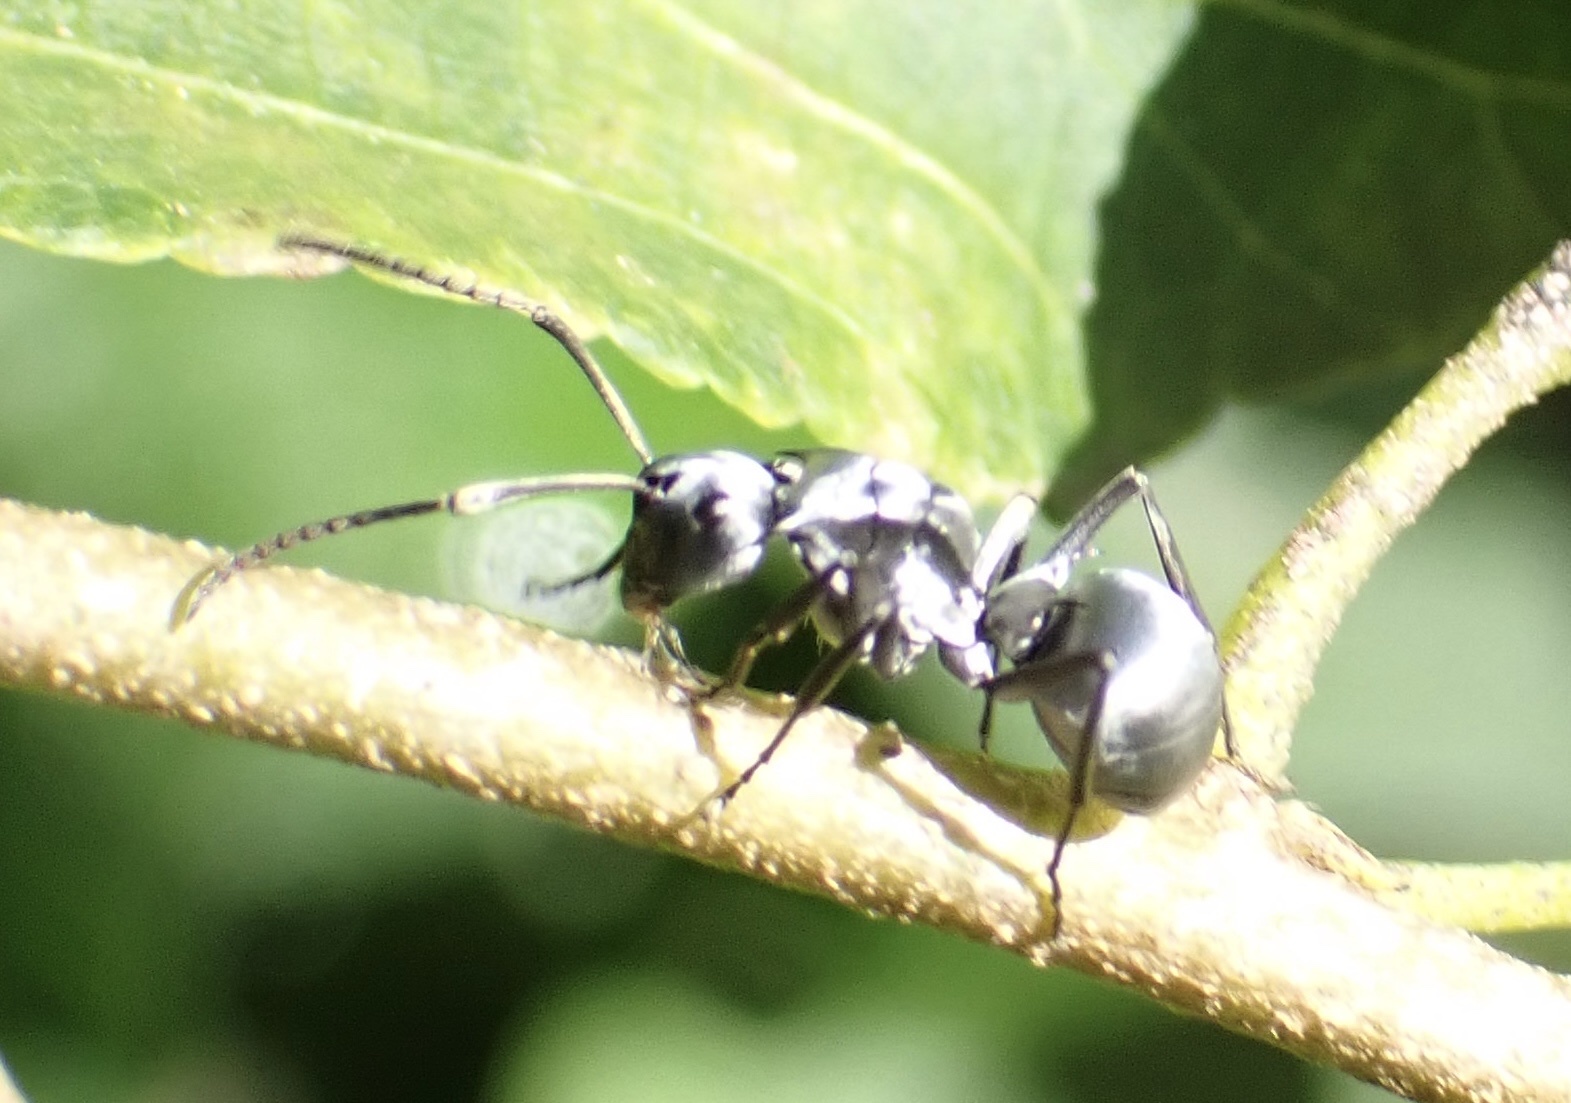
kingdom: Animalia
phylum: Arthropoda
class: Insecta
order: Hymenoptera
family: Formicidae
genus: Polyrhachis
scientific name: Polyrhachis schlueteri
